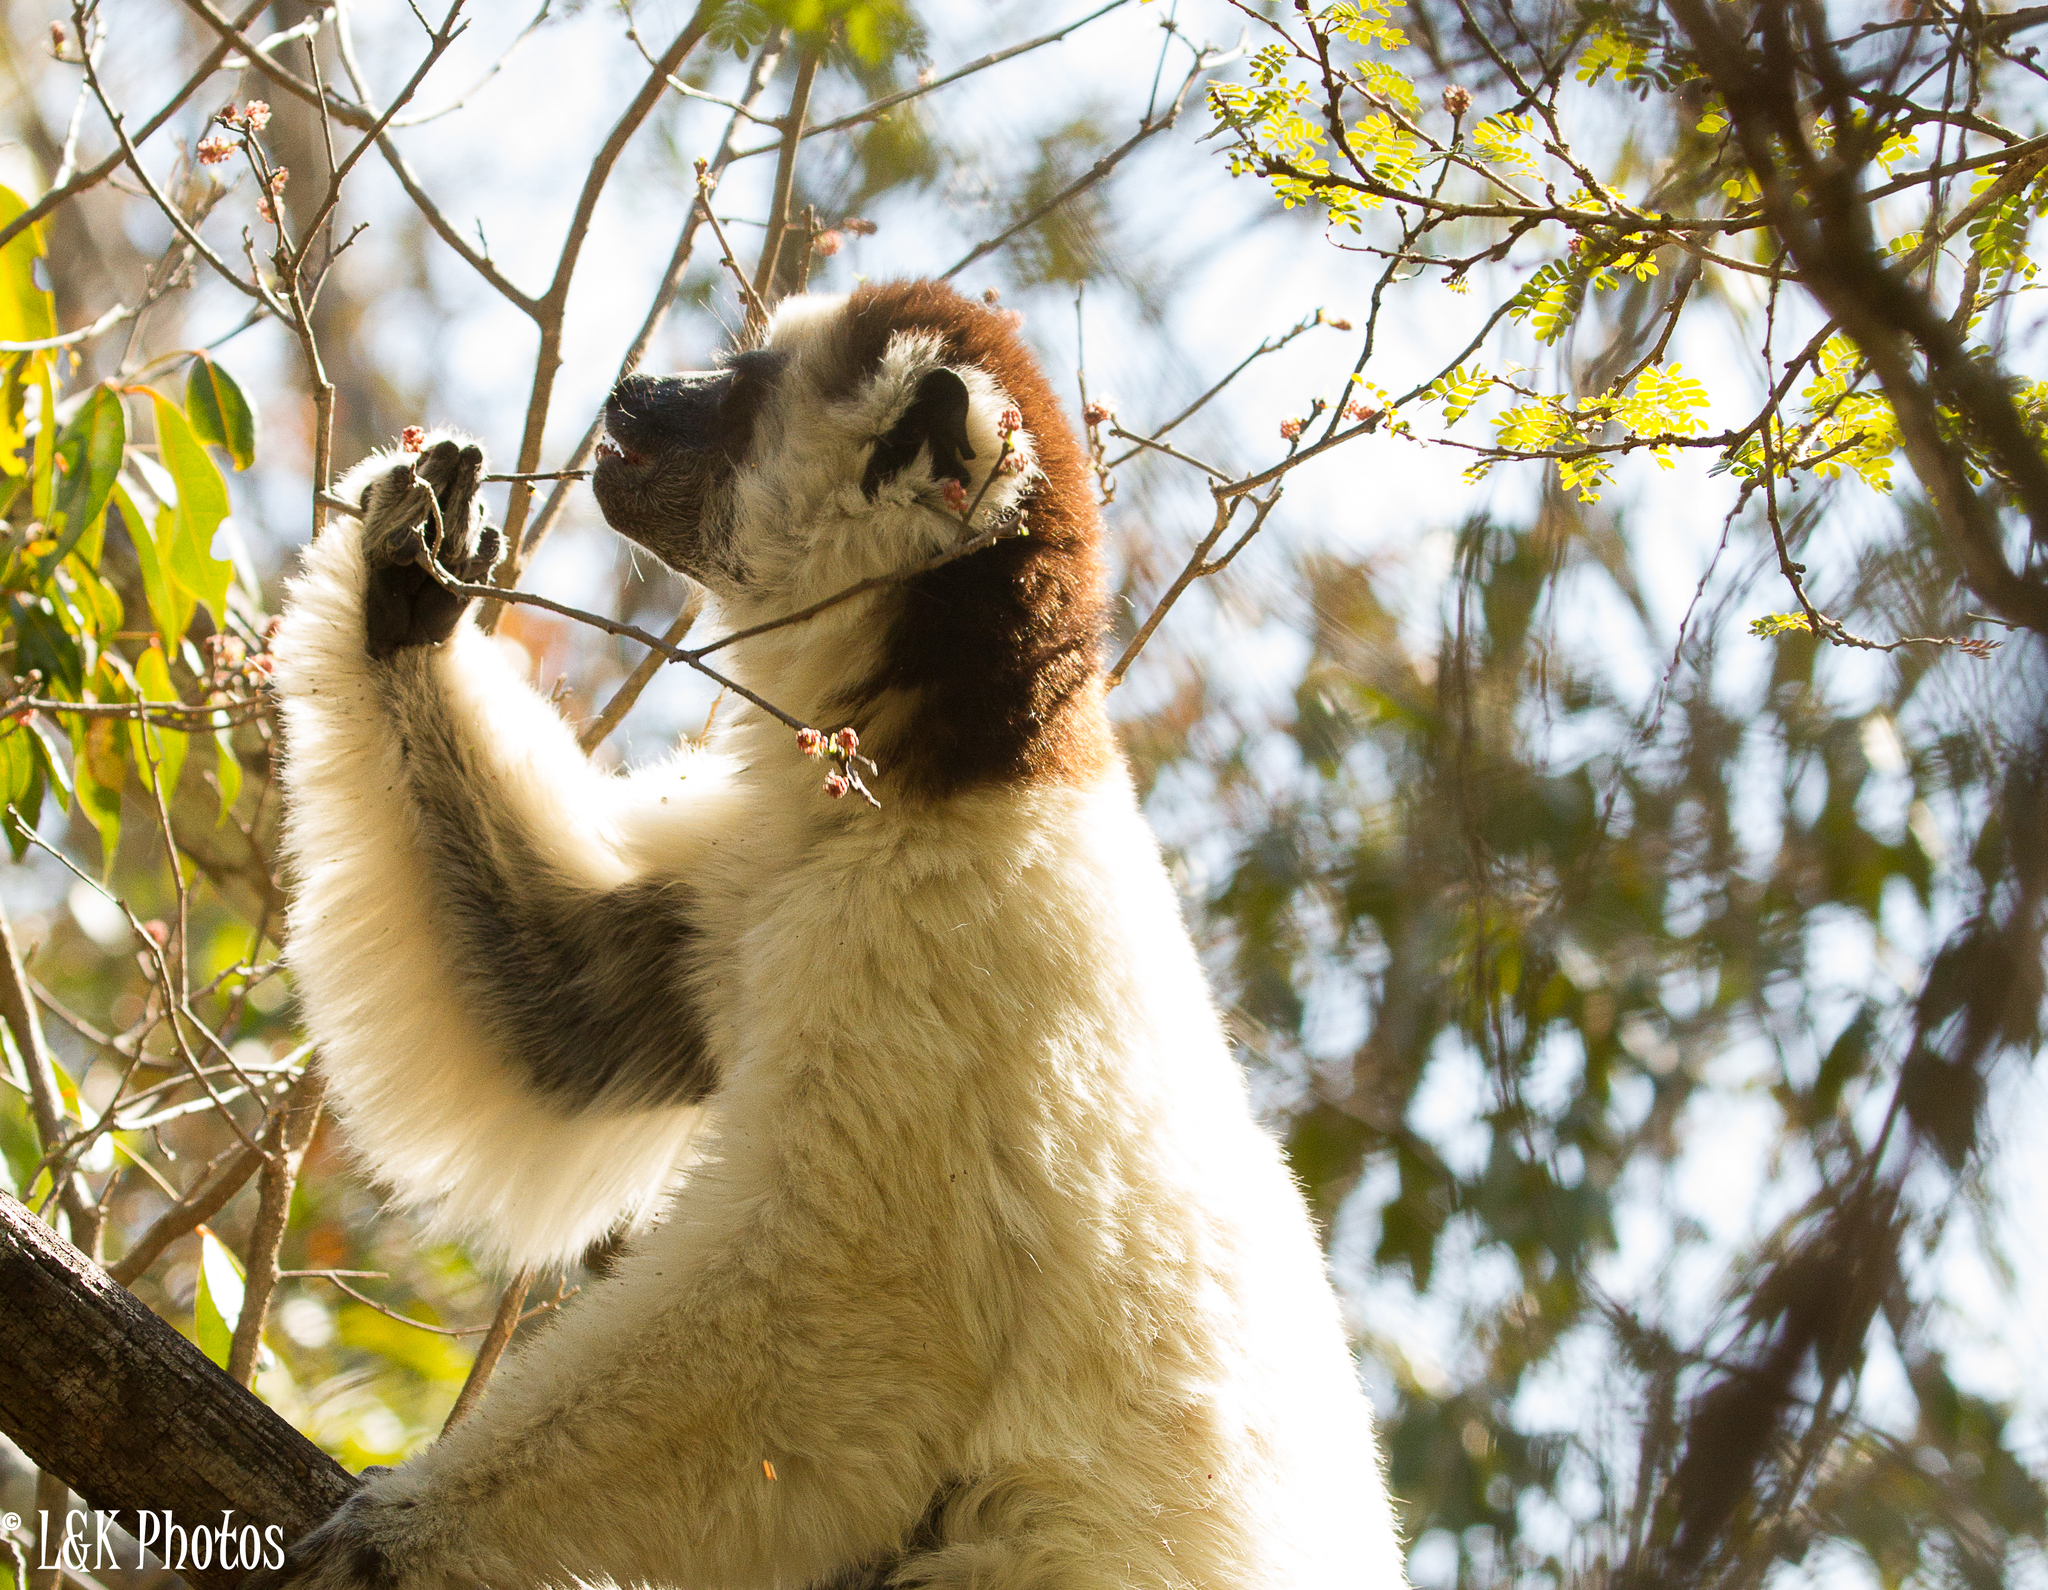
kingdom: Animalia
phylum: Chordata
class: Mammalia
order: Primates
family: Indriidae
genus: Propithecus
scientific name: Propithecus verreauxi
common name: Verreaux's sifaka
